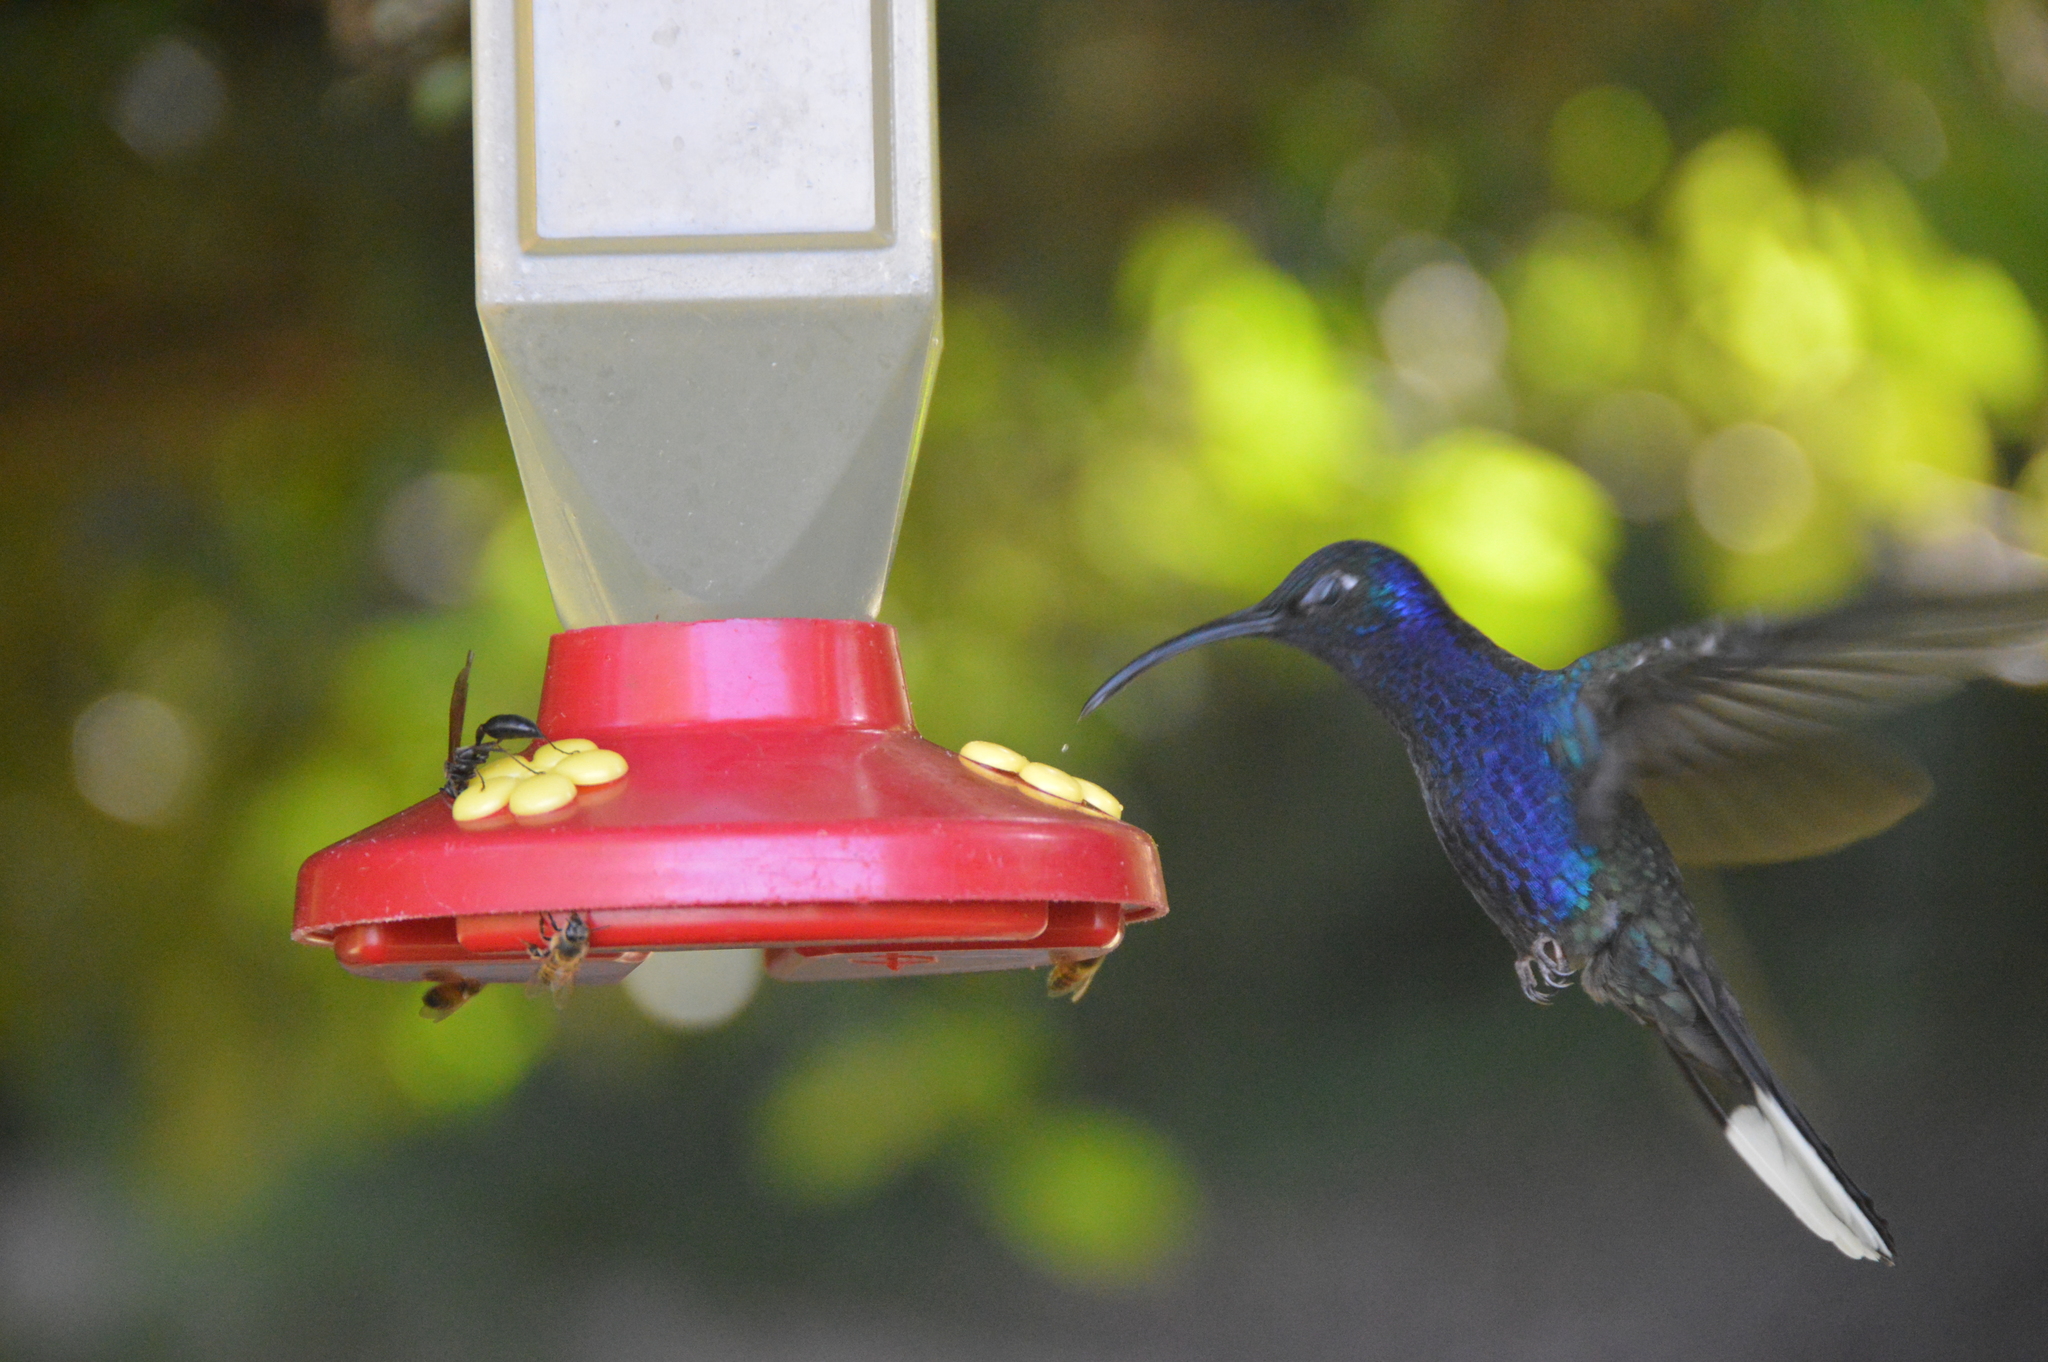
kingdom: Animalia
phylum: Chordata
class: Aves
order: Apodiformes
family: Trochilidae
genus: Campylopterus
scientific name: Campylopterus hemileucurus
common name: Violet sabrewing
